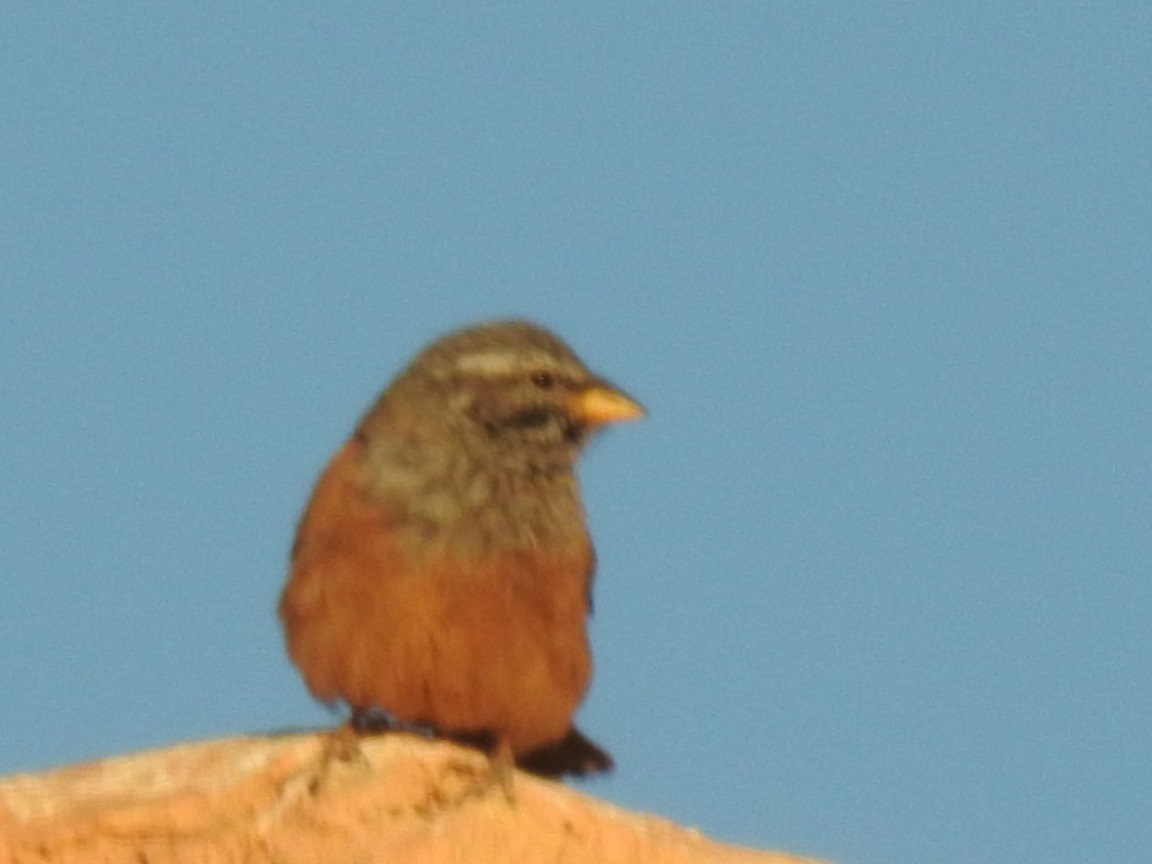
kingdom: Animalia
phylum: Chordata
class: Aves
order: Passeriformes
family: Emberizidae
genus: Emberiza
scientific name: Emberiza sahari
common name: House bunting
